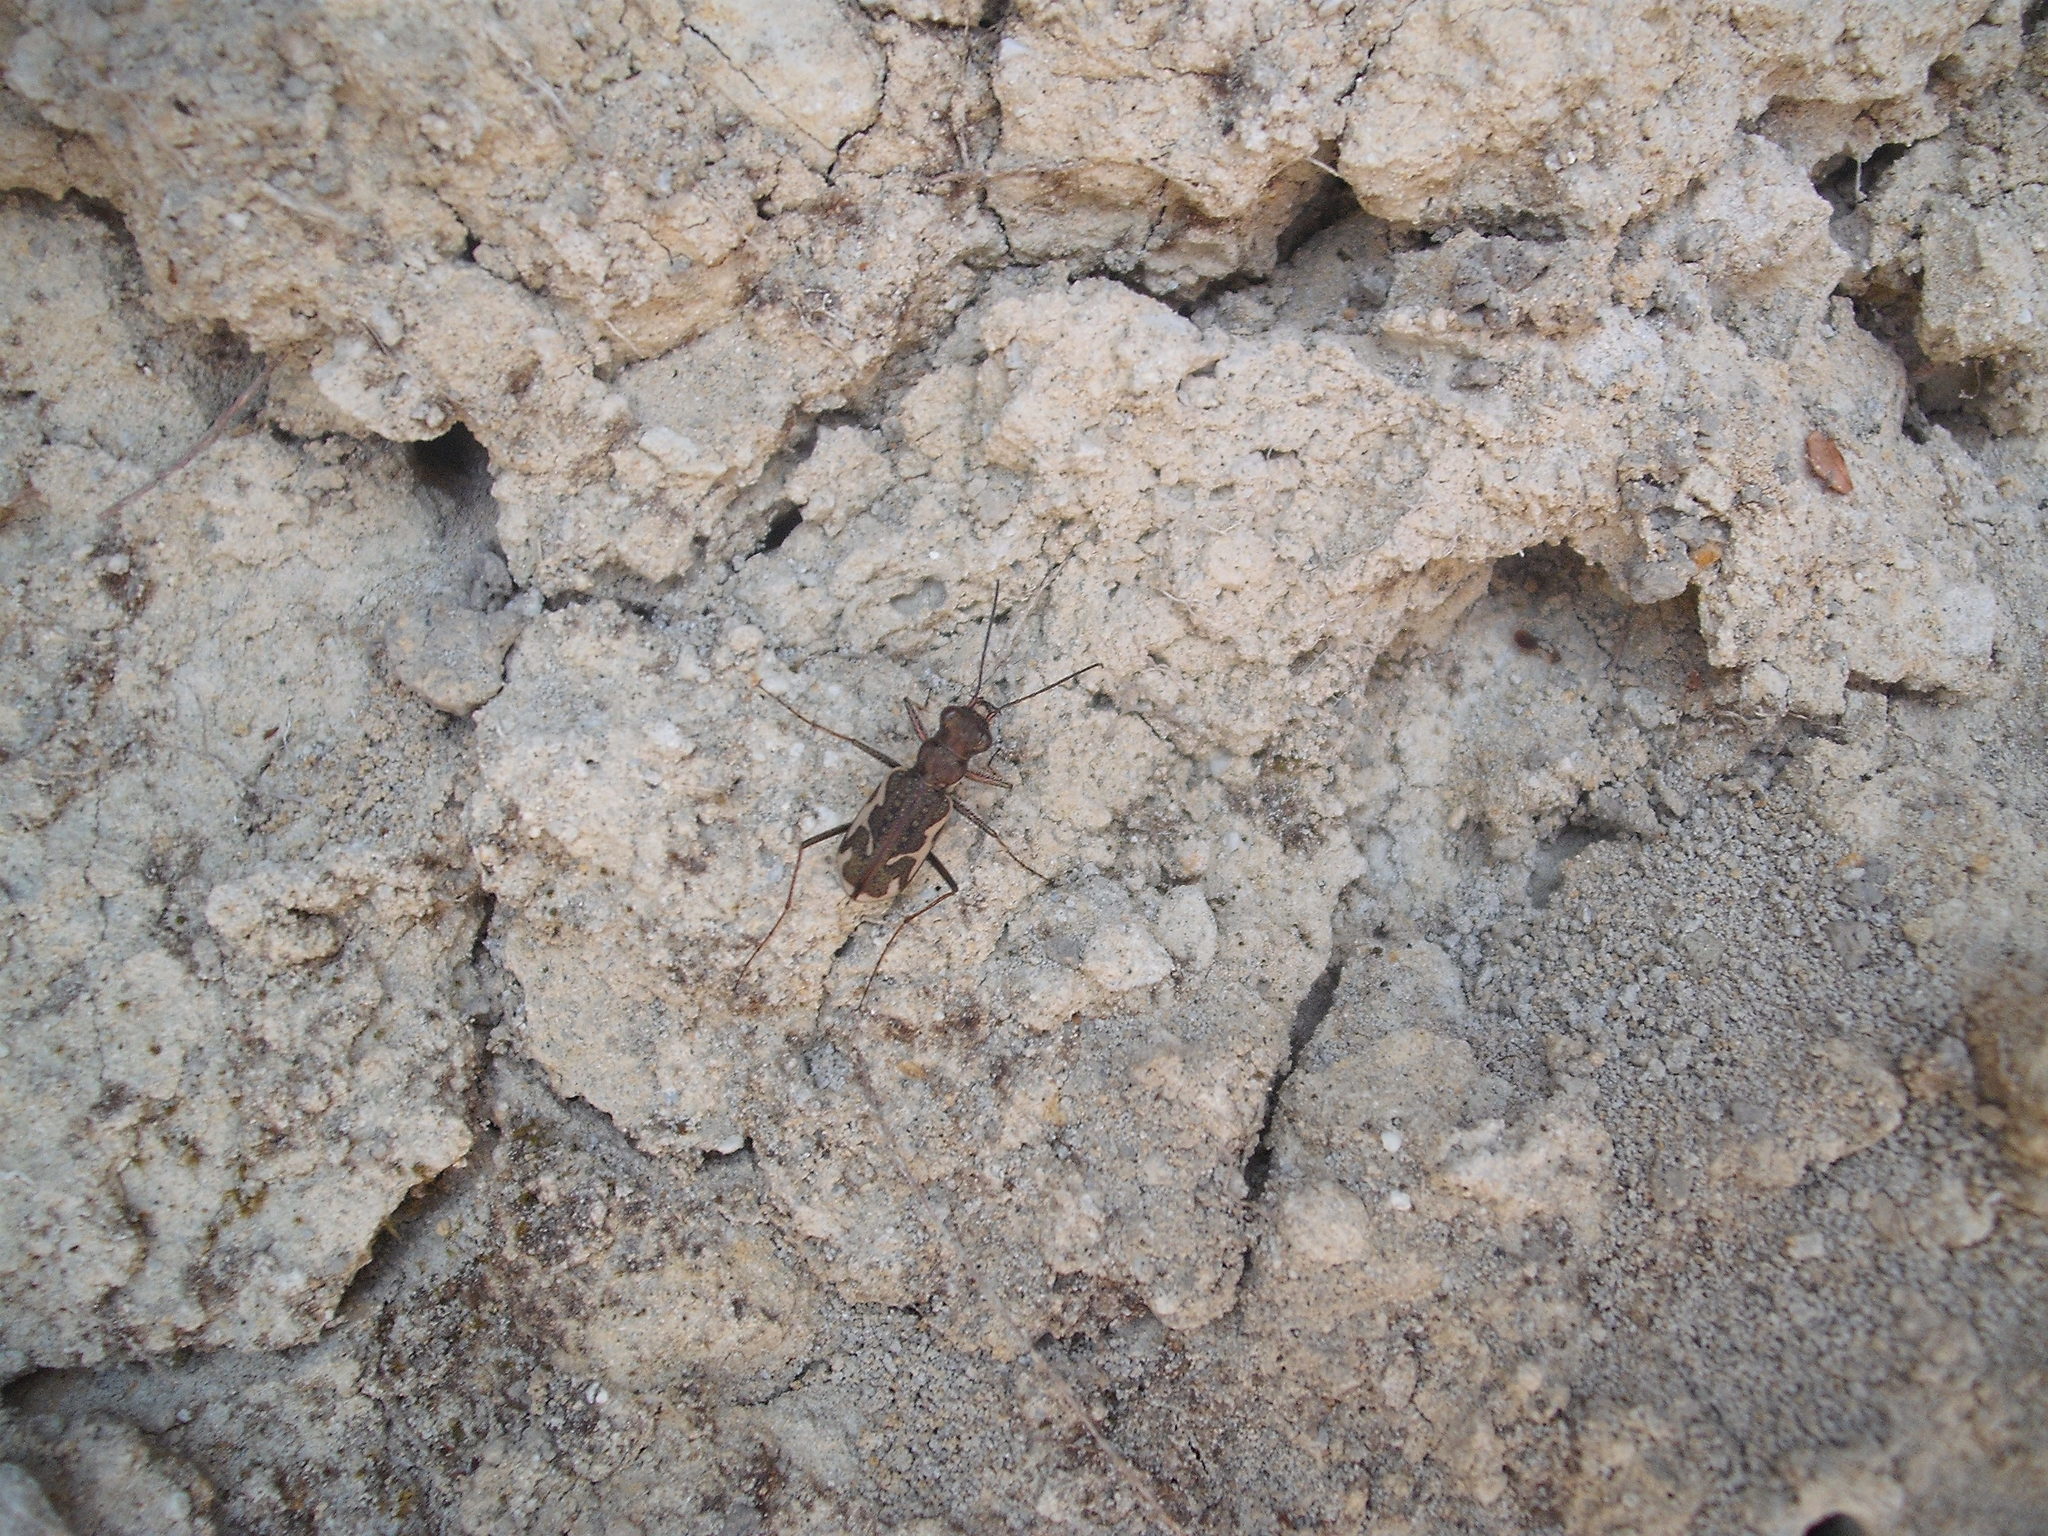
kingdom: Animalia
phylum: Arthropoda
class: Insecta
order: Coleoptera
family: Carabidae
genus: Neocicindela
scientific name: Neocicindela tuberculata
